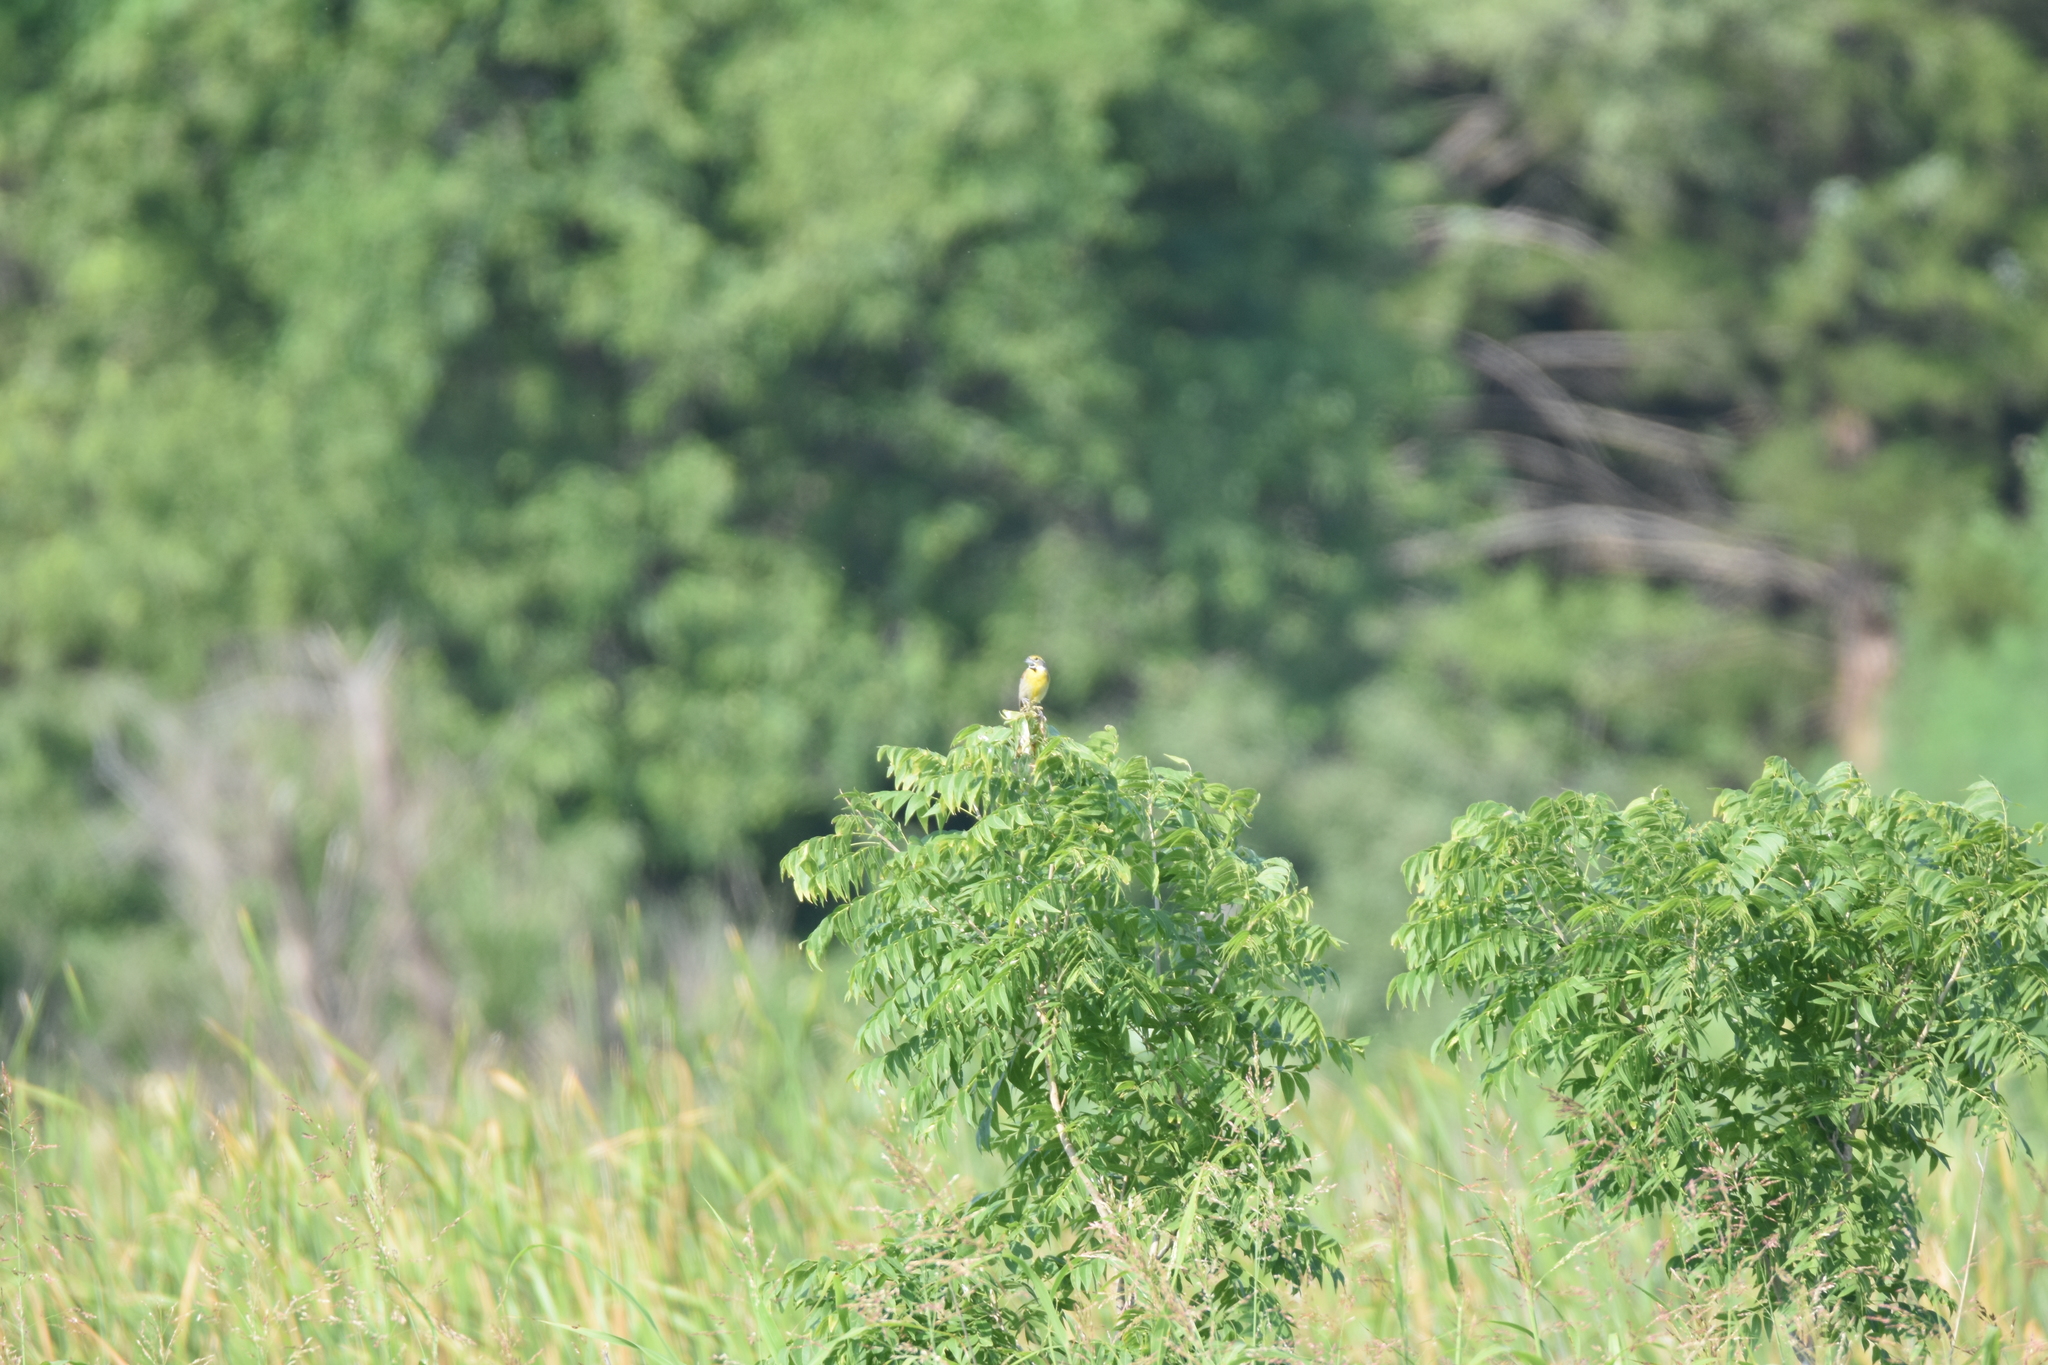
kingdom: Animalia
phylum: Chordata
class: Aves
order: Passeriformes
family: Cardinalidae
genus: Spiza
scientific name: Spiza americana
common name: Dickcissel
